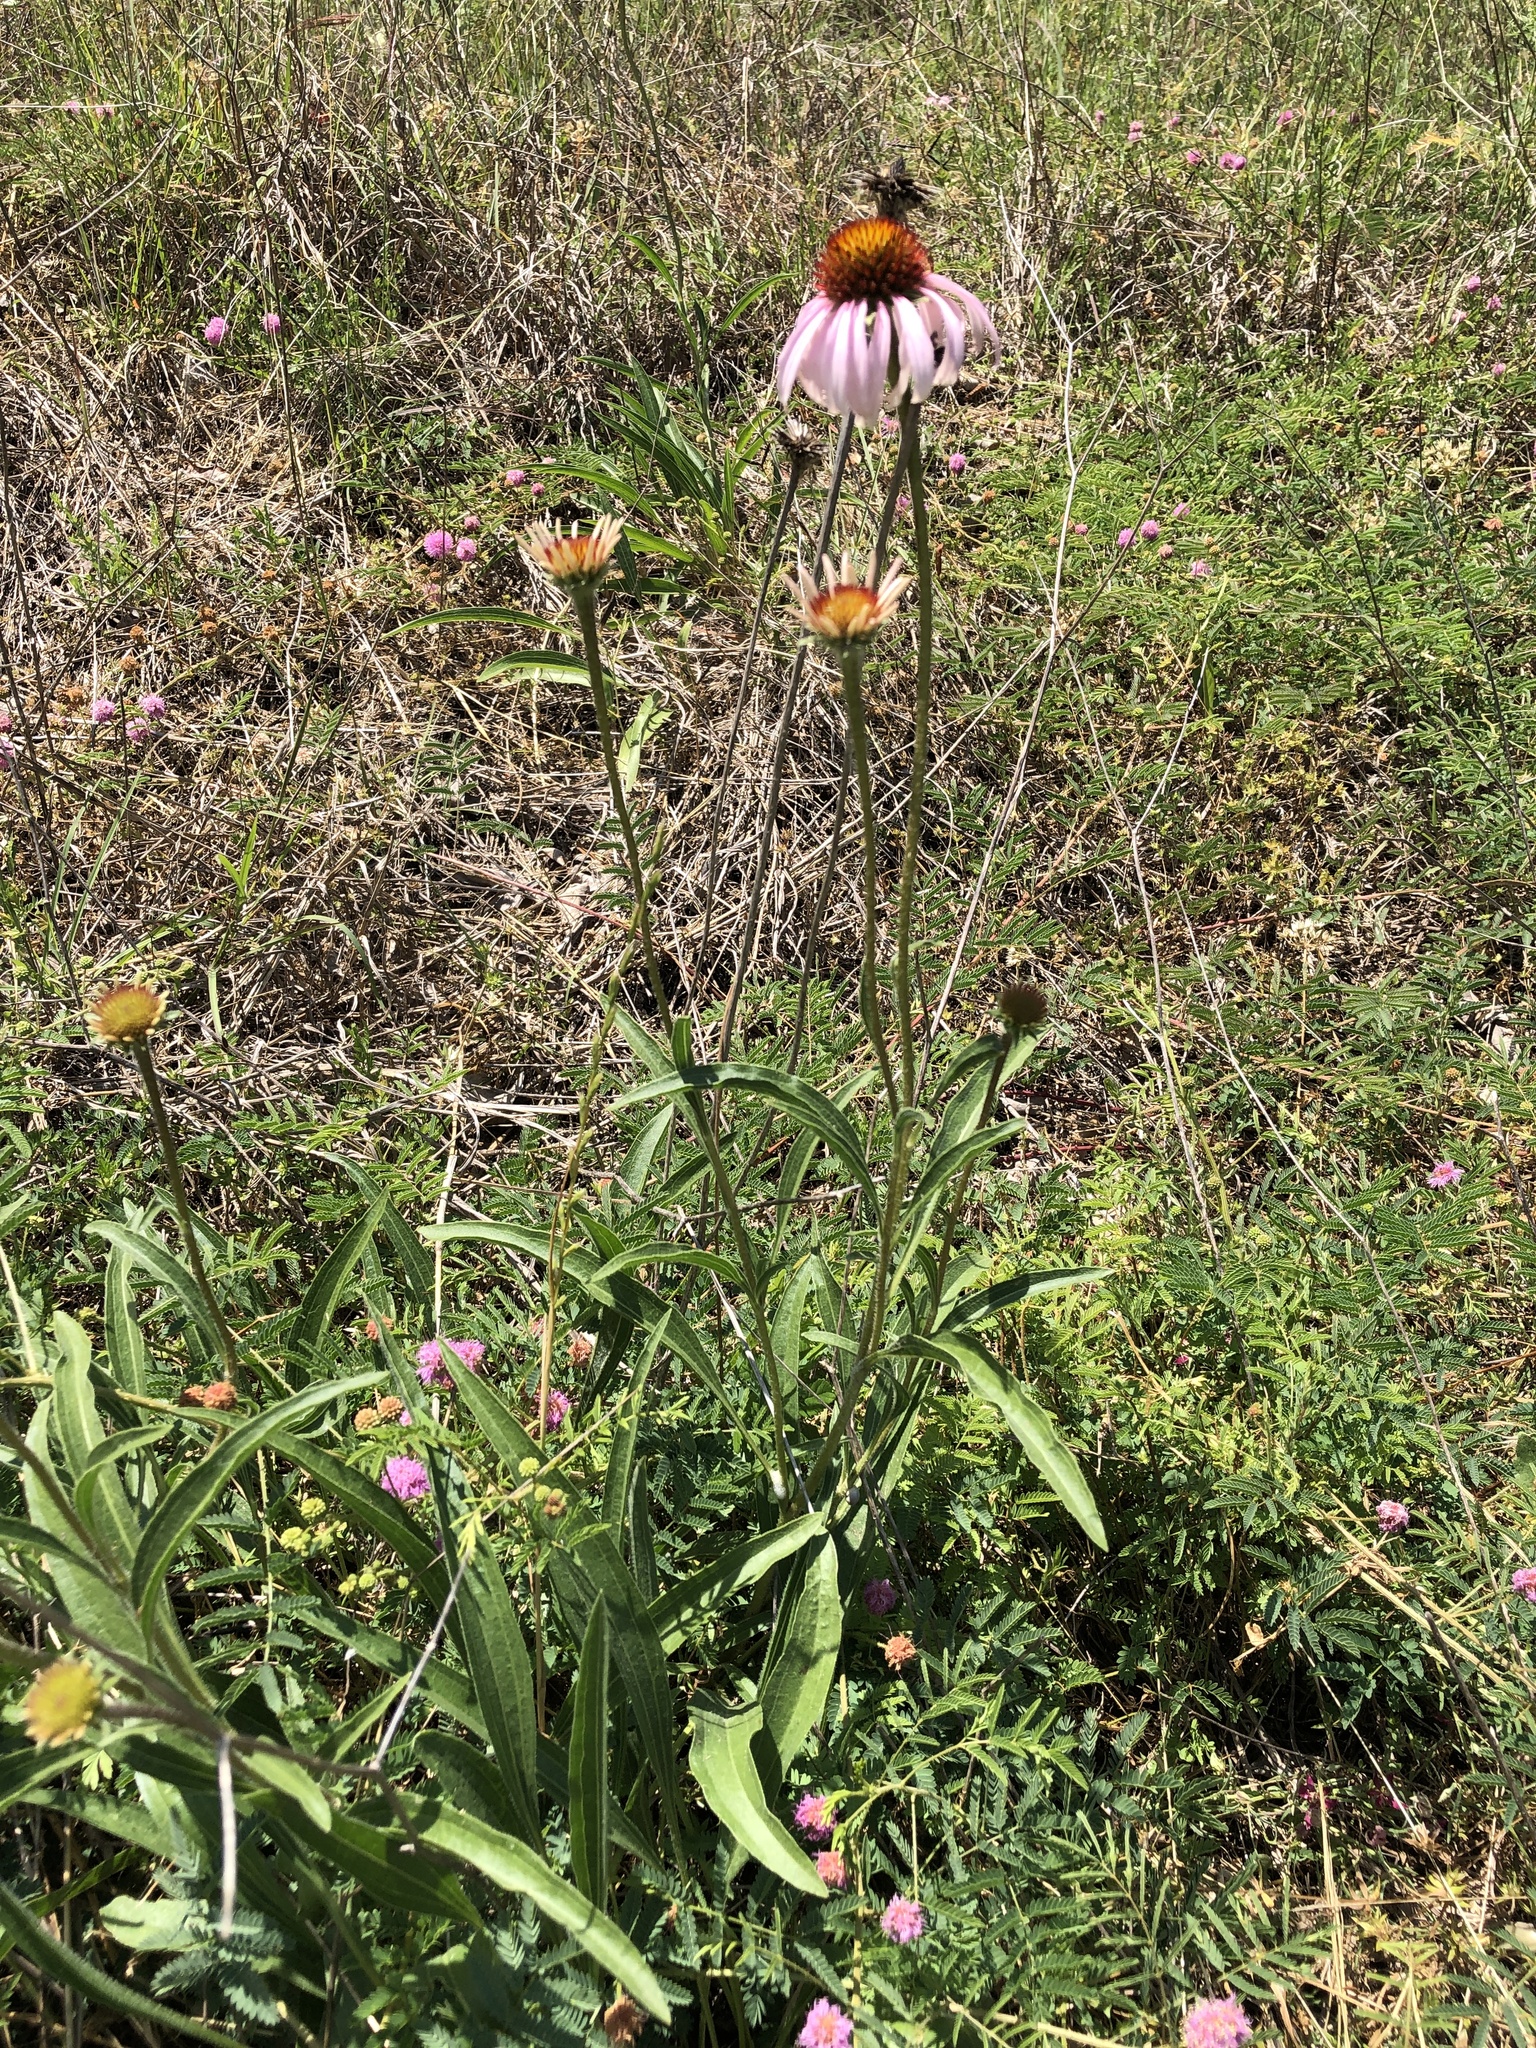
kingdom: Plantae
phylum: Tracheophyta
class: Magnoliopsida
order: Asterales
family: Asteraceae
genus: Echinacea
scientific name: Echinacea angustifolia
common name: Black-sampson echinacea
